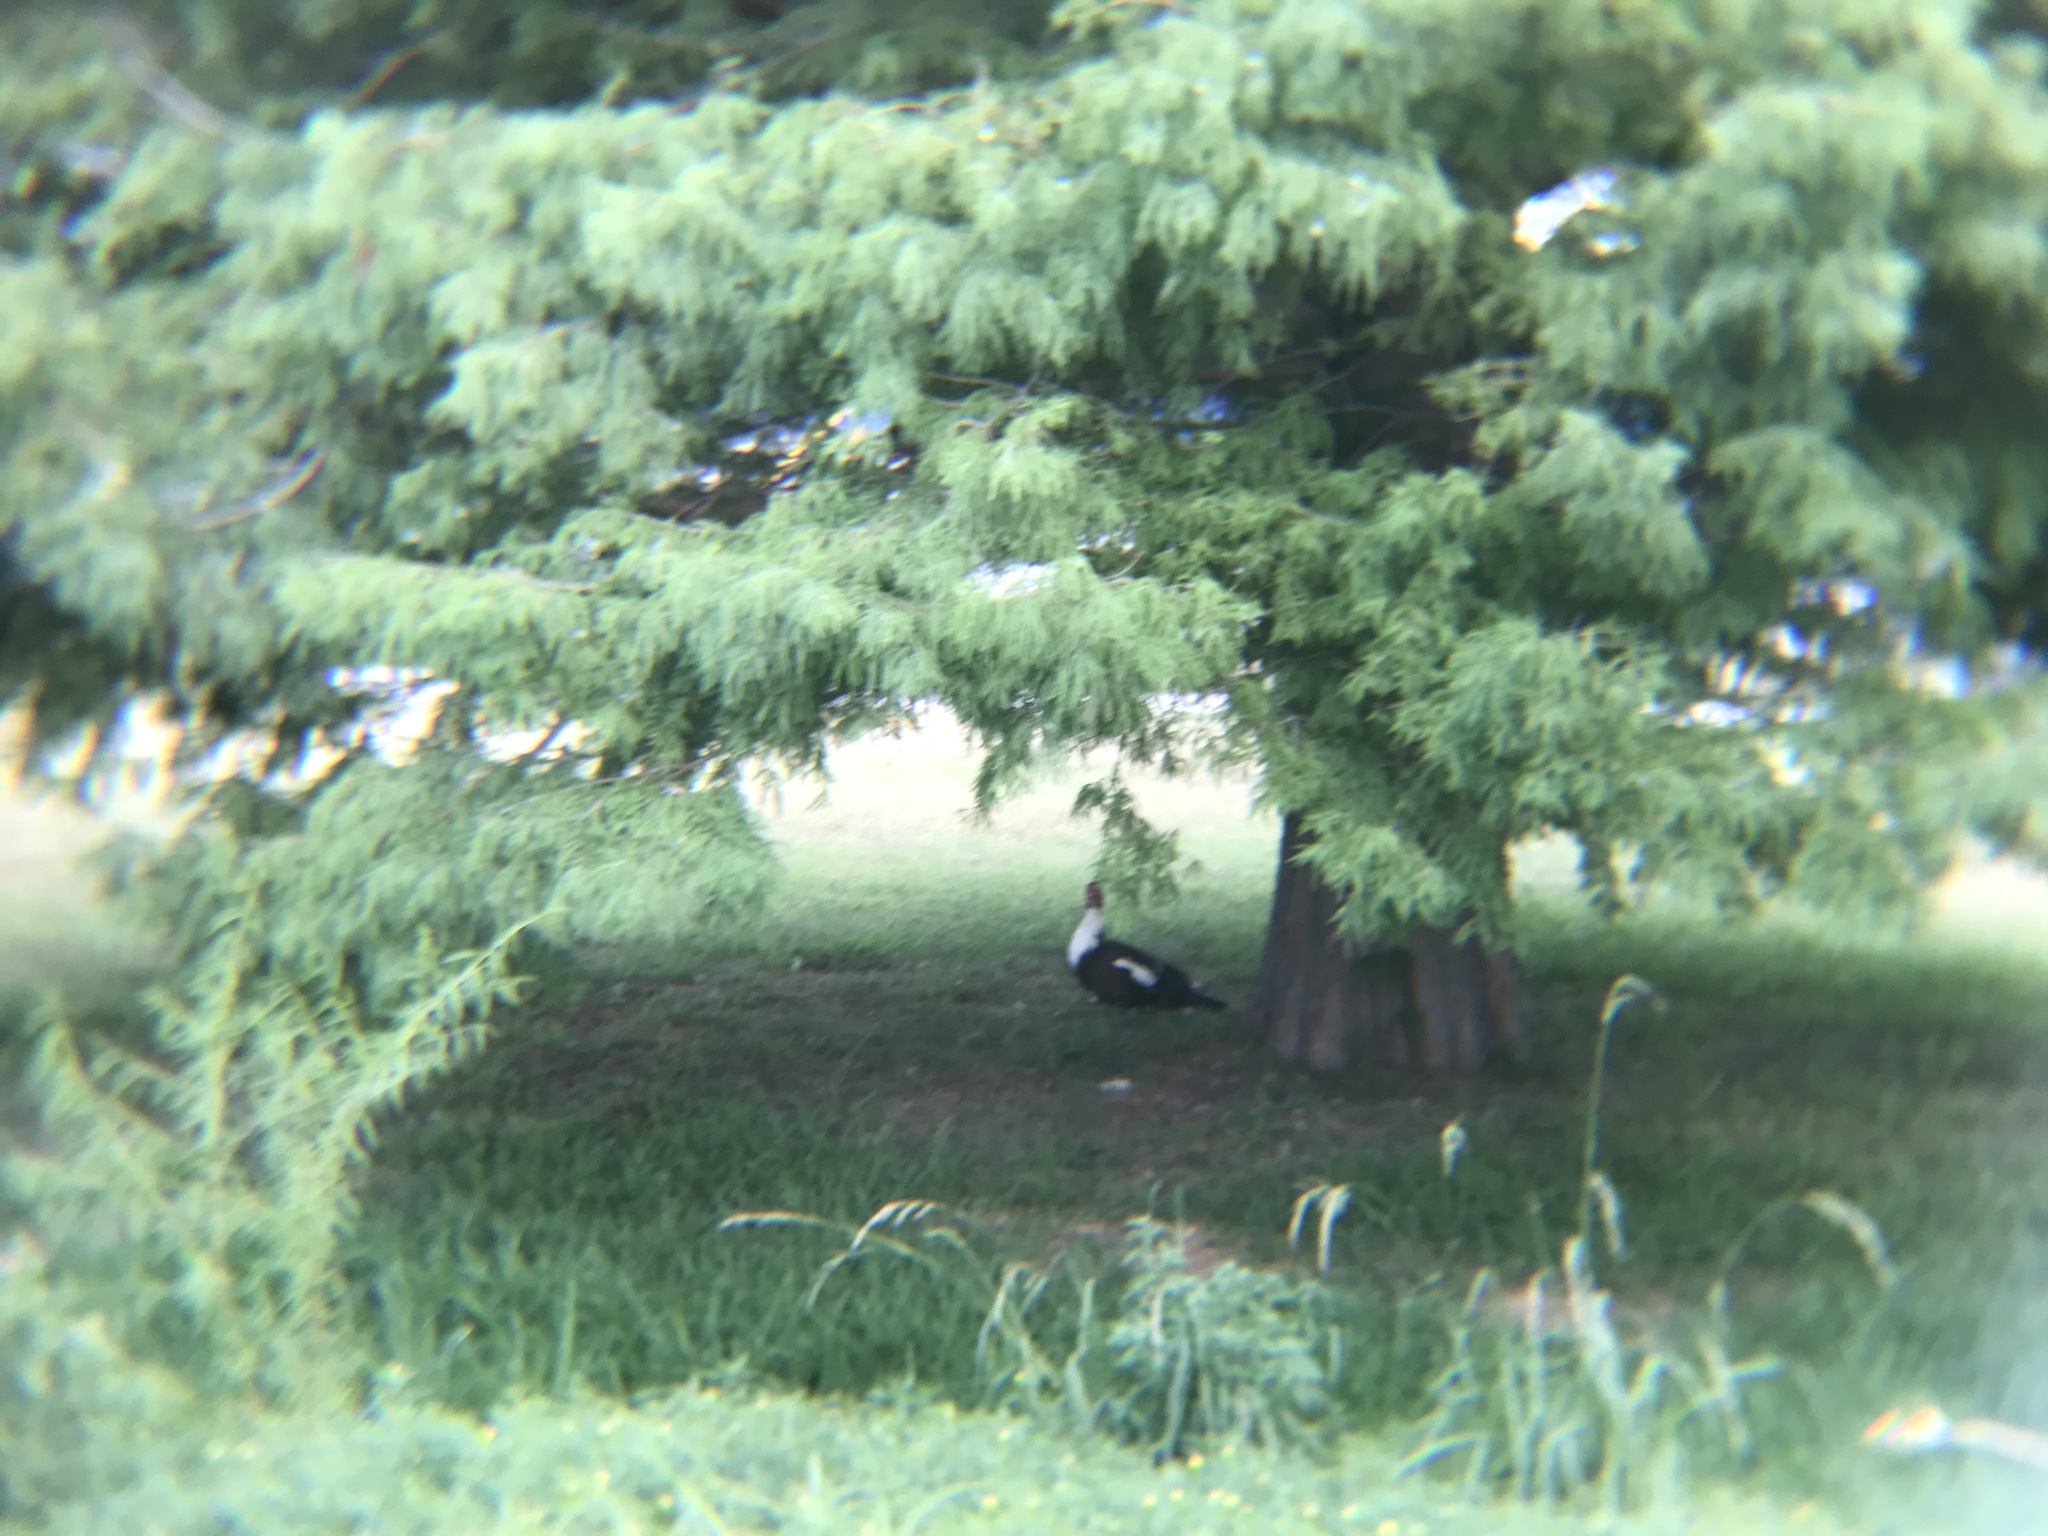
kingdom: Animalia
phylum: Chordata
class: Aves
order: Anseriformes
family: Anatidae
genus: Cairina
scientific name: Cairina moschata
